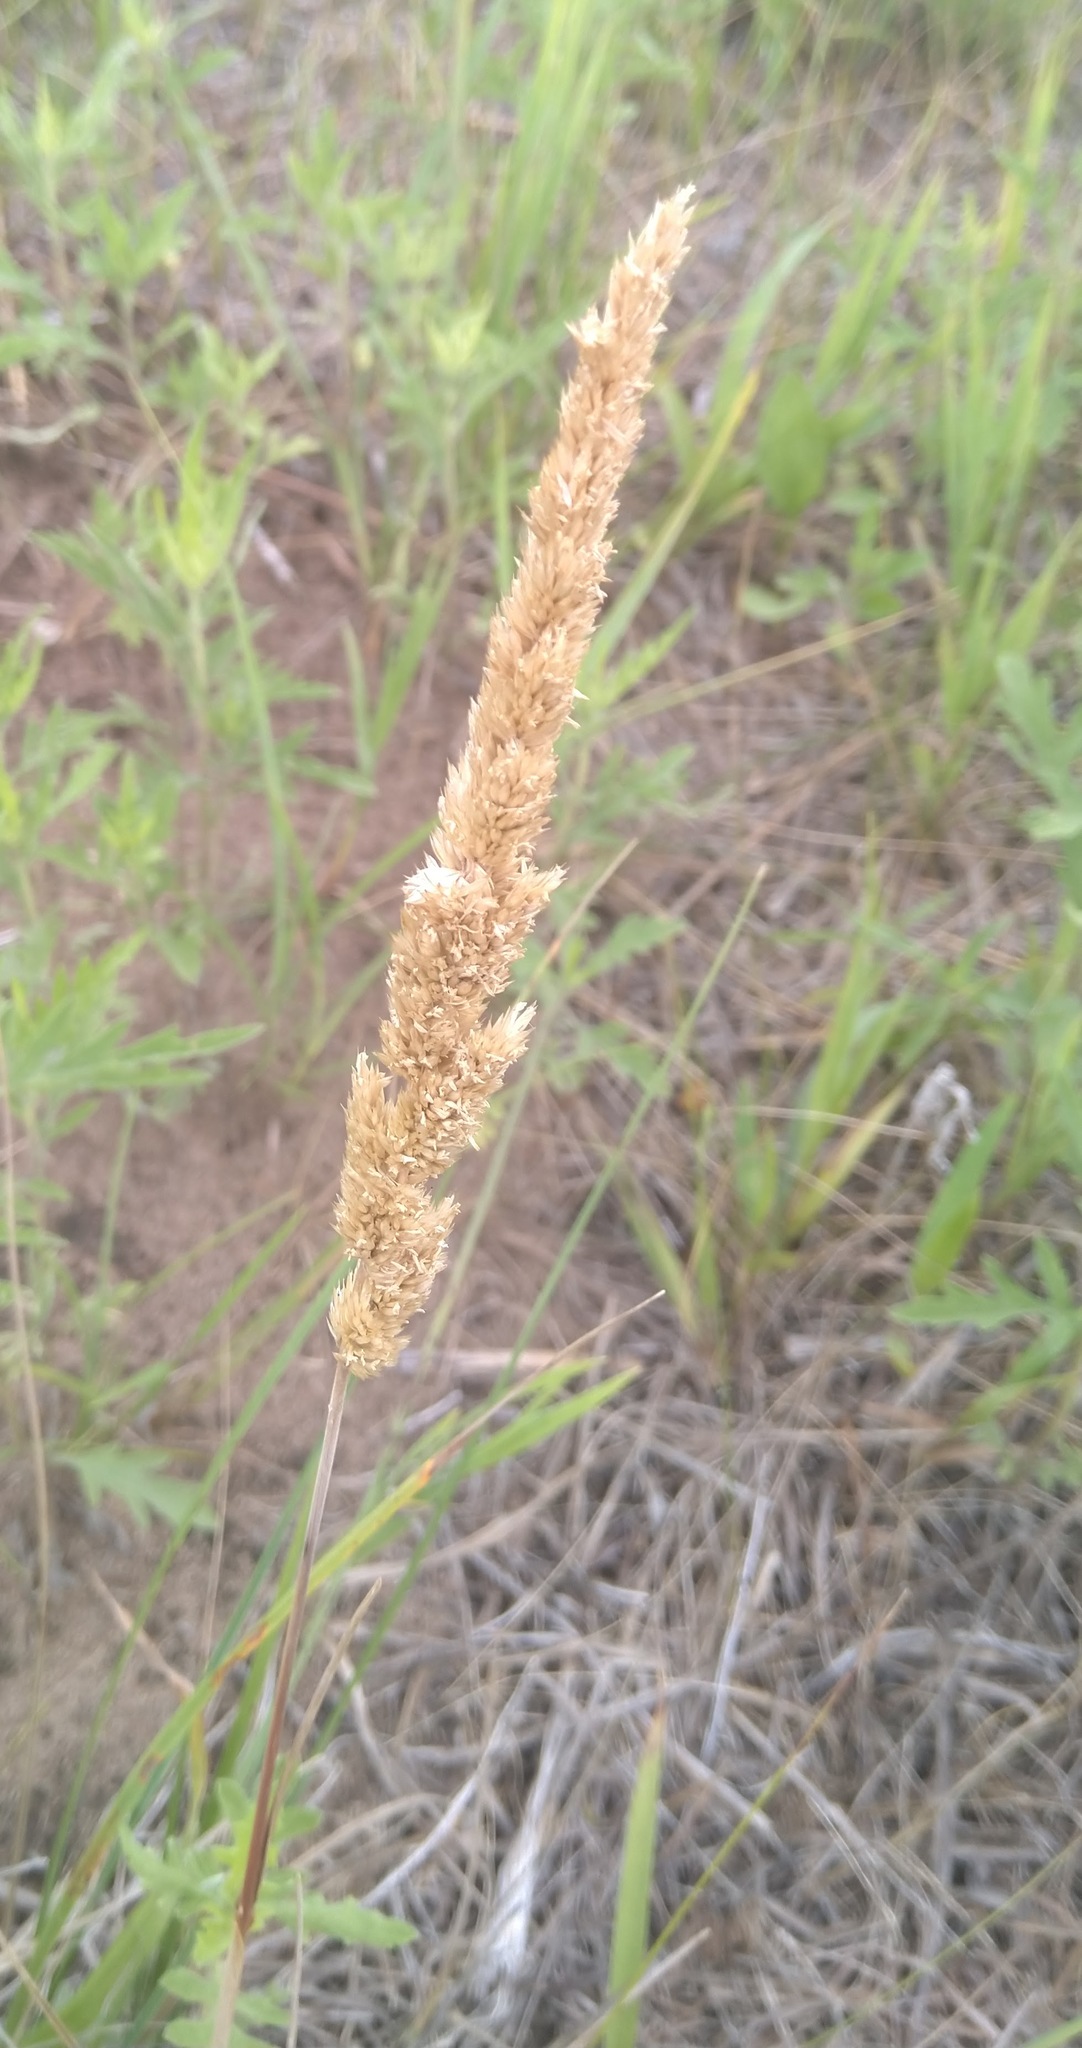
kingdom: Plantae
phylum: Tracheophyta
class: Liliopsida
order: Poales
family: Poaceae
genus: Koeleria
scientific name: Koeleria macrantha
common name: Crested hair-grass
